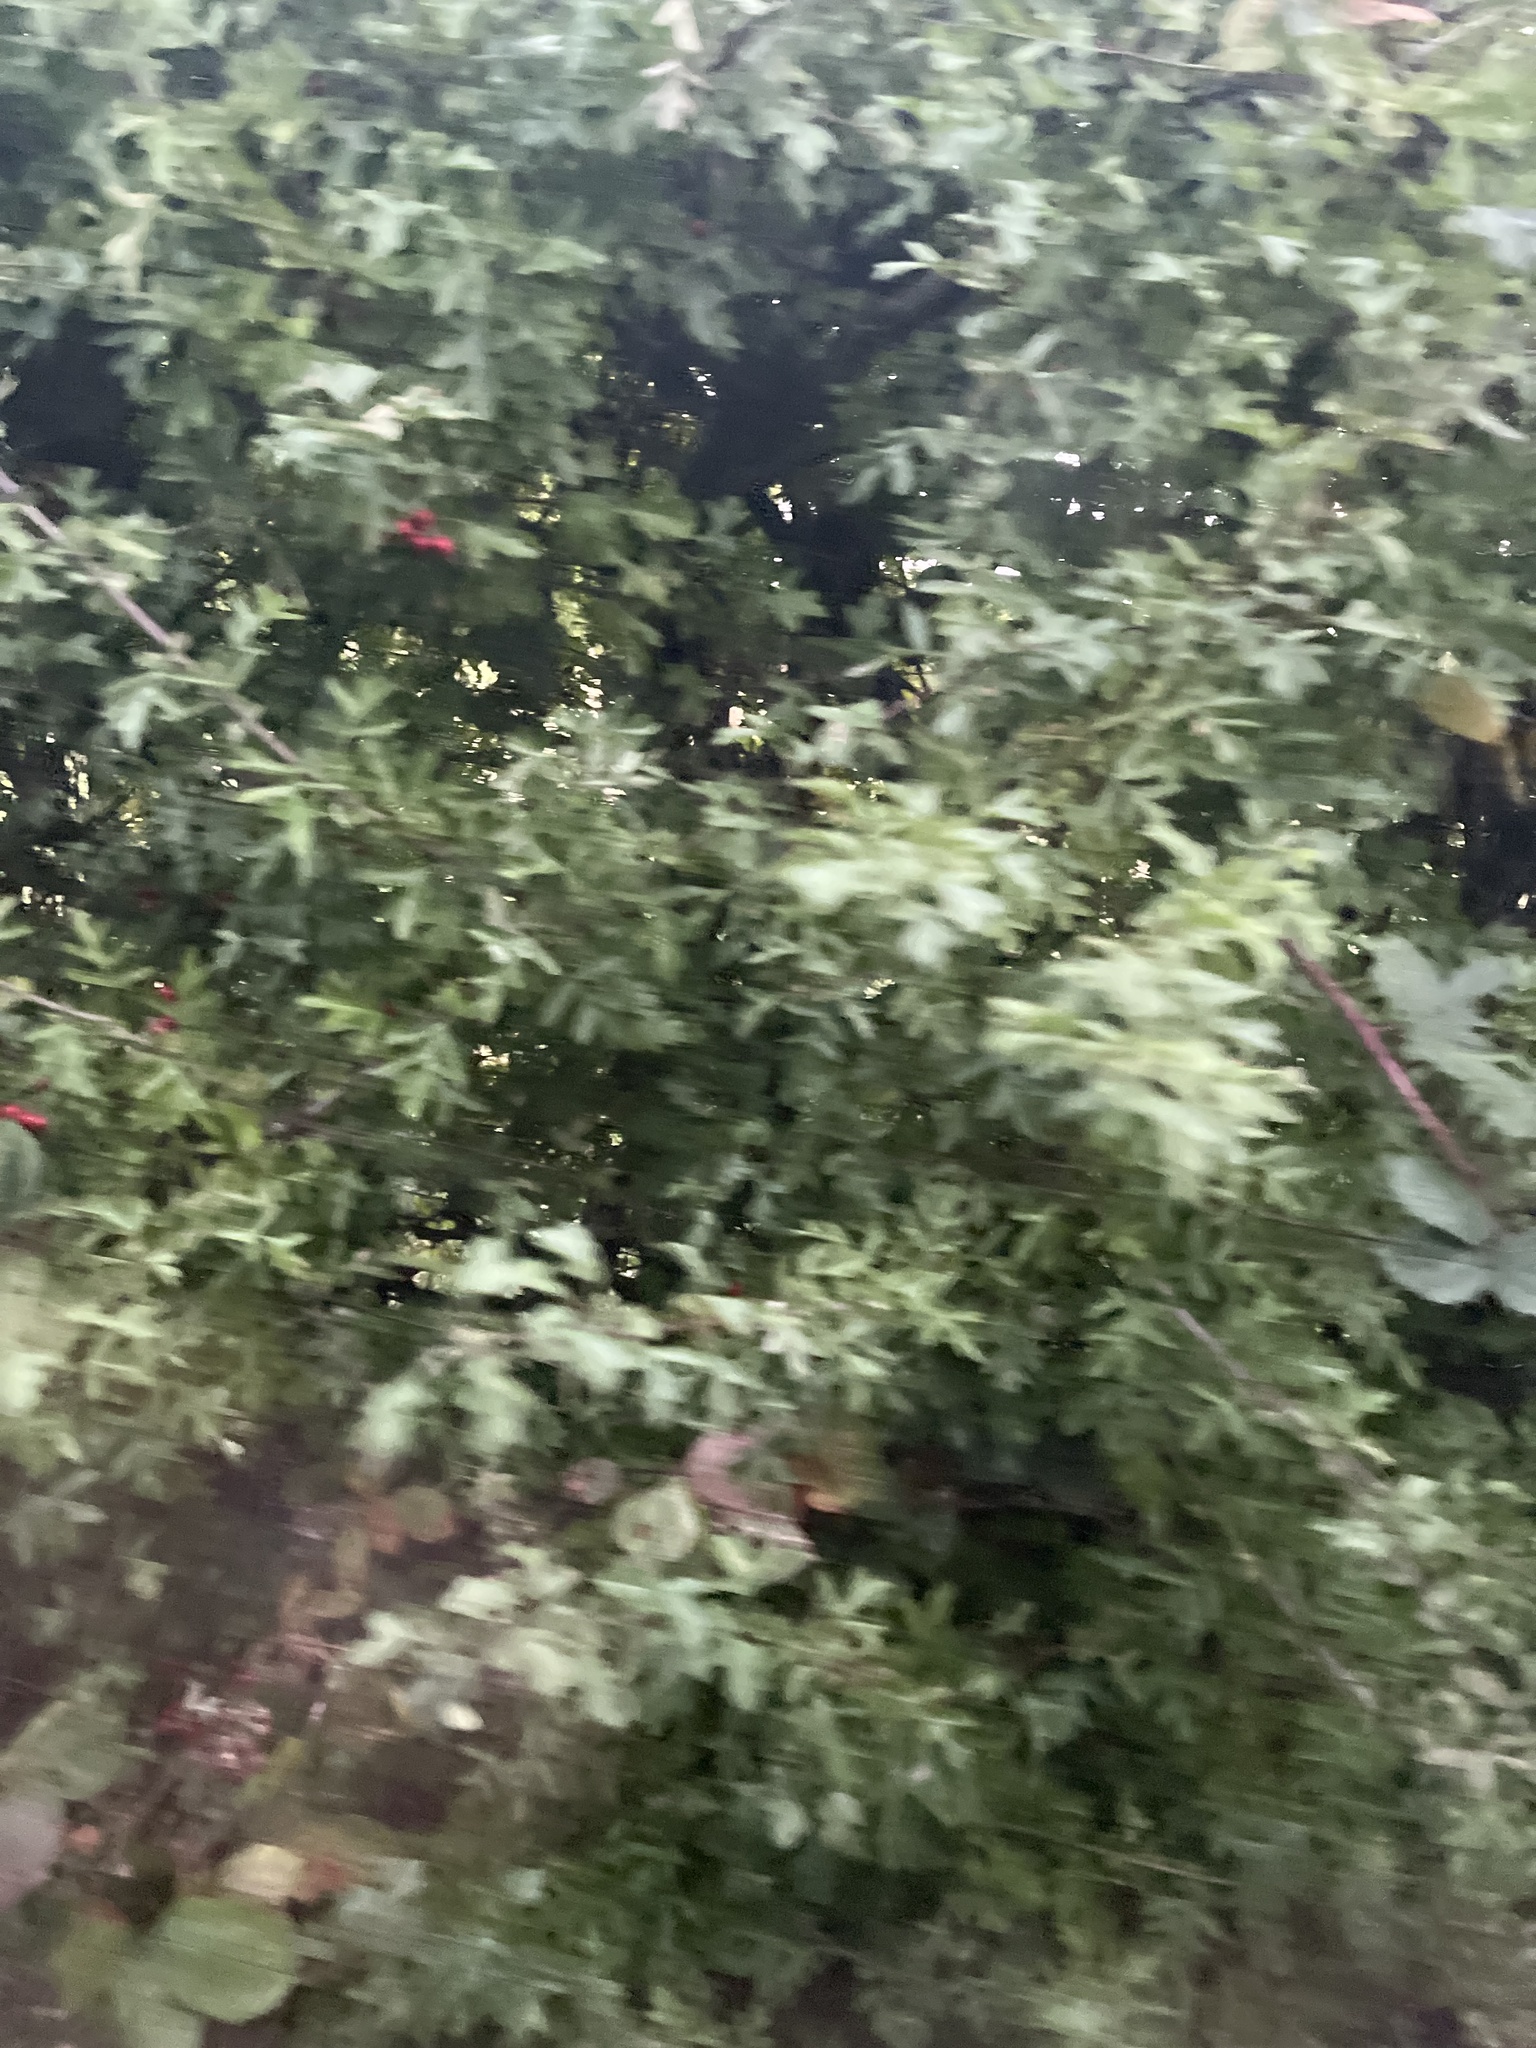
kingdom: Plantae
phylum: Tracheophyta
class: Magnoliopsida
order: Rosales
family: Rosaceae
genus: Crataegus
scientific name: Crataegus monogyna
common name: Hawthorn
